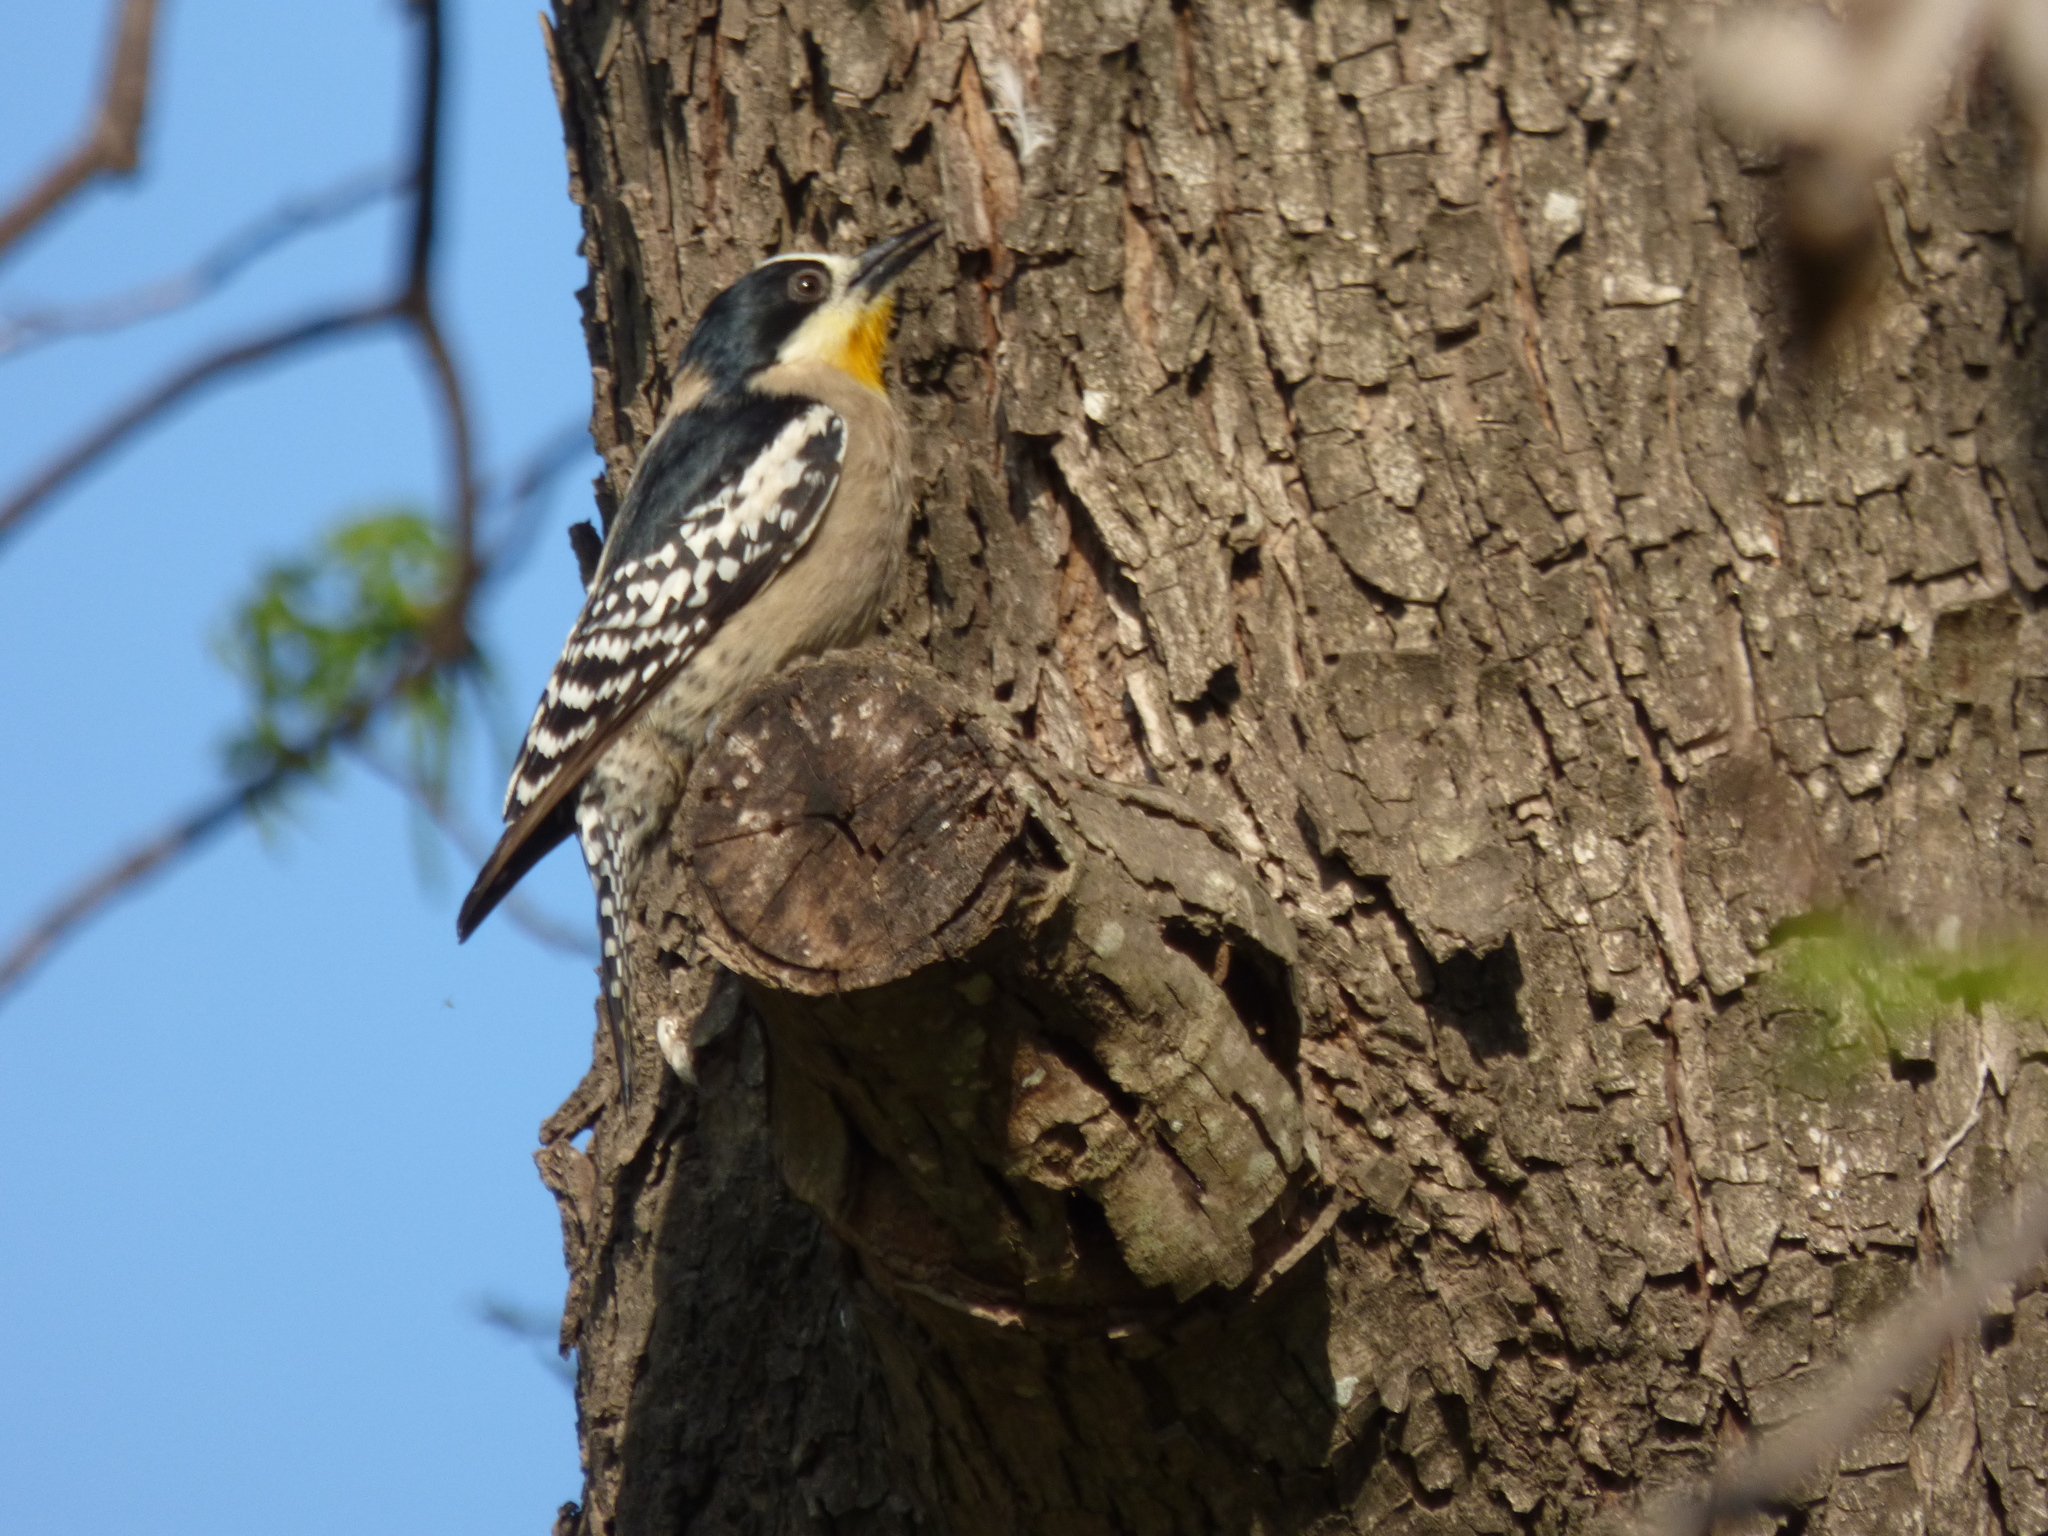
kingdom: Animalia
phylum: Chordata
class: Aves
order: Piciformes
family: Picidae
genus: Melanerpes
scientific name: Melanerpes cactorum
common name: White-fronted woodpecker
